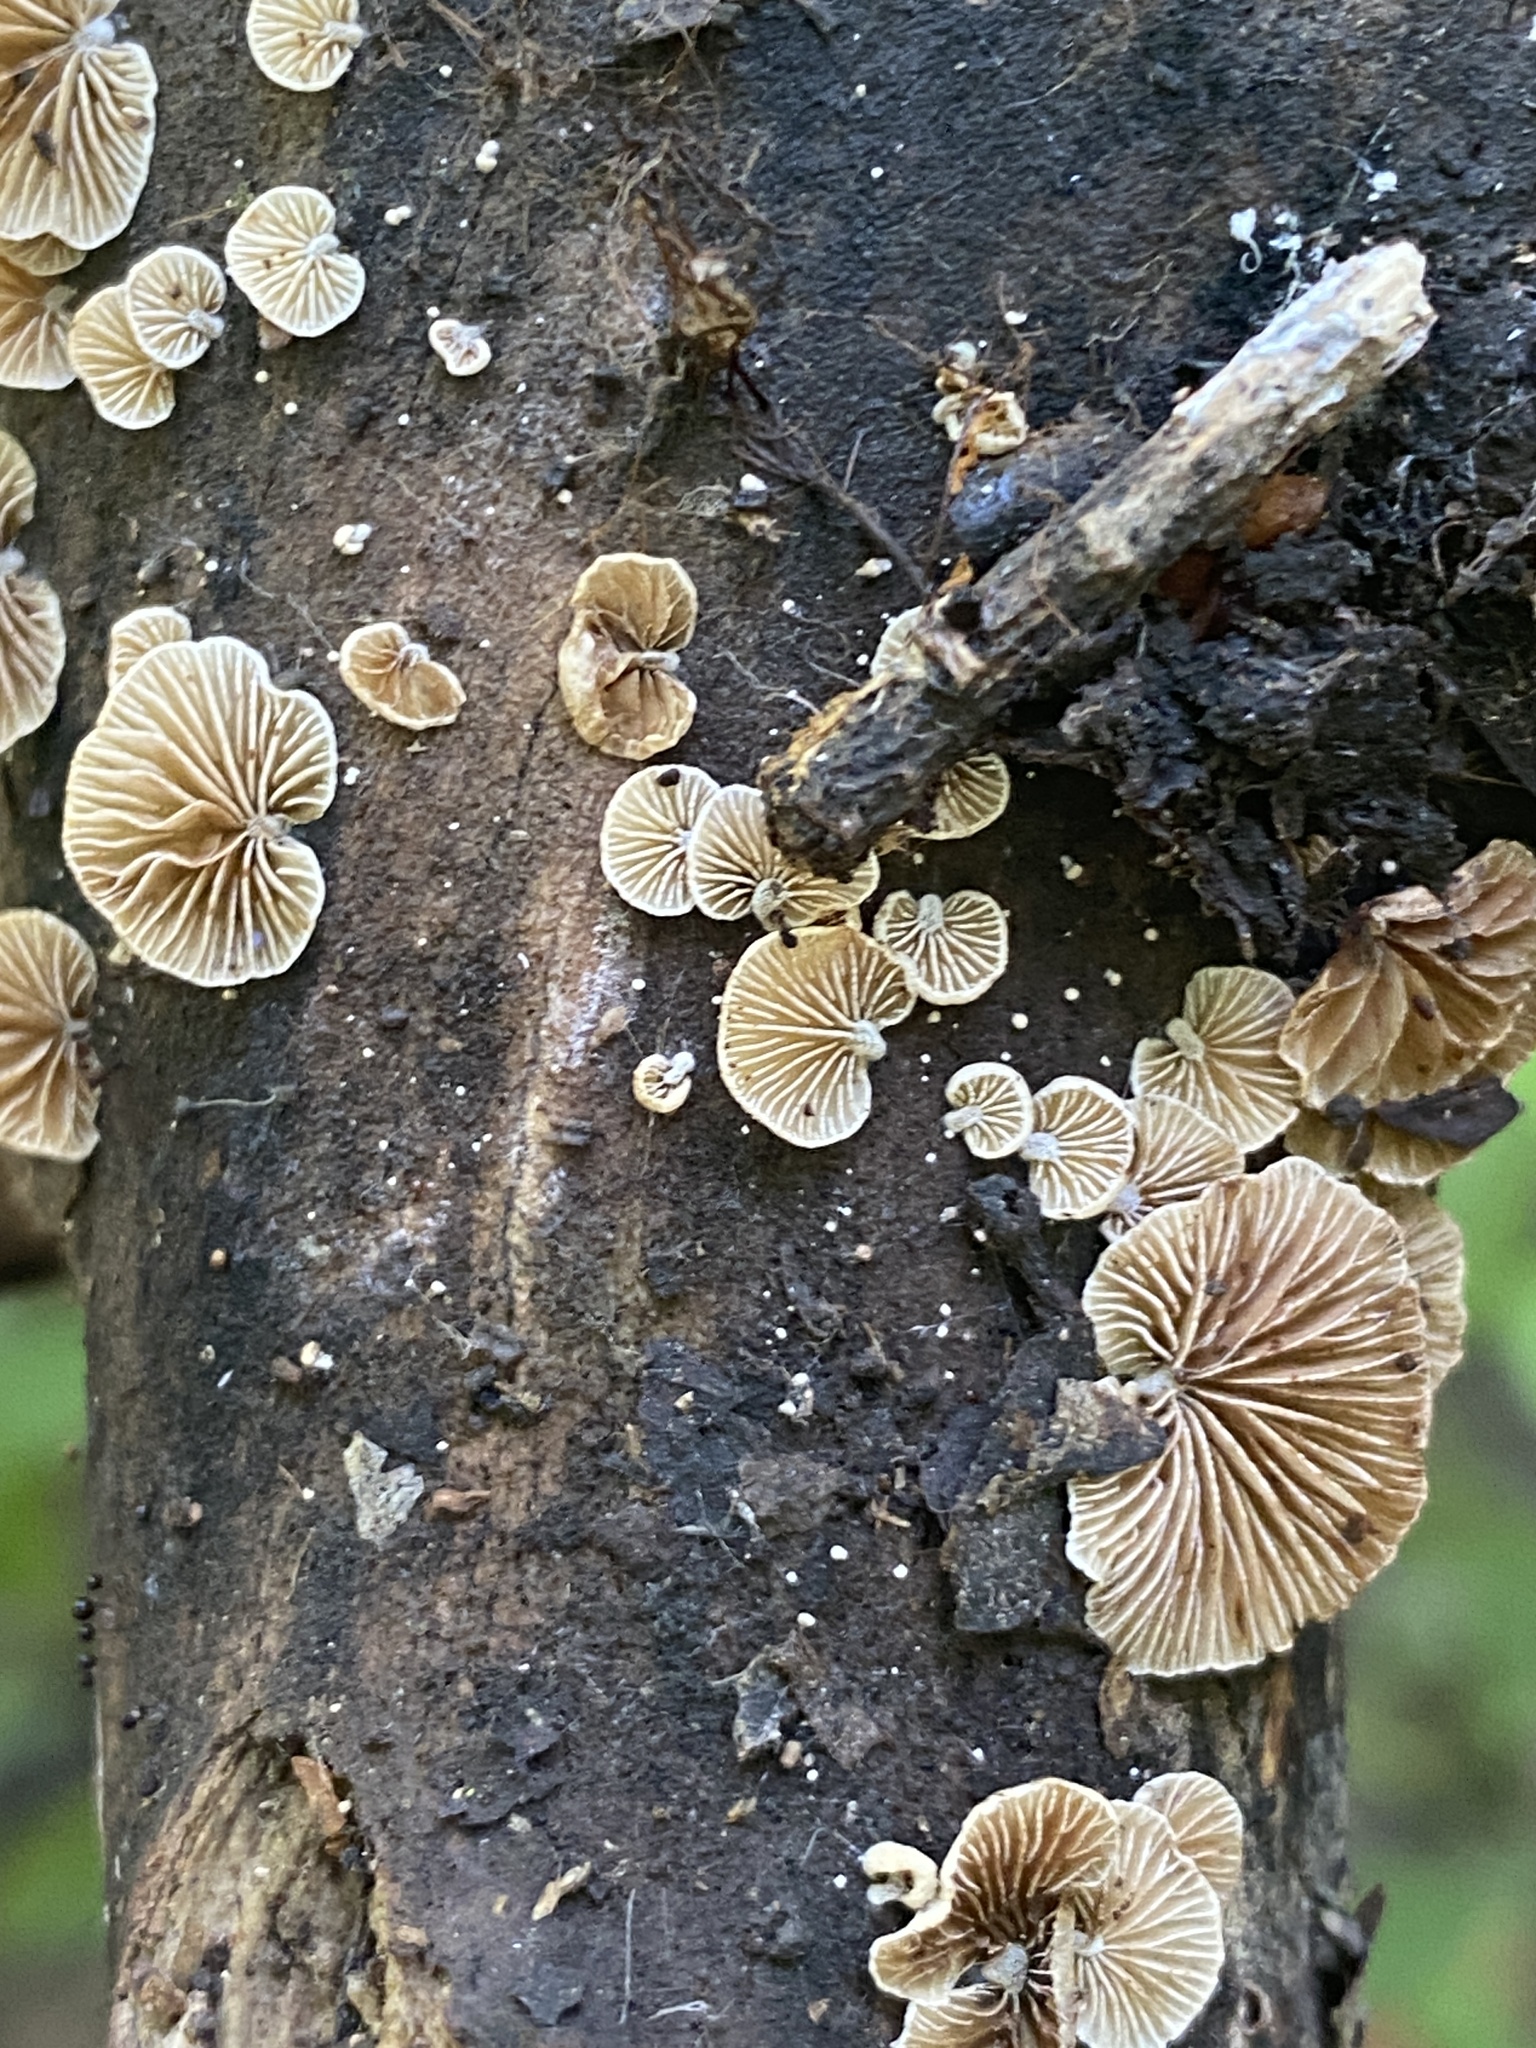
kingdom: Fungi
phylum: Basidiomycota
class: Agaricomycetes
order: Agaricales
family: Crepidotaceae
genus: Crepidotus
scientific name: Crepidotus variabilis
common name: Variable oysterling
